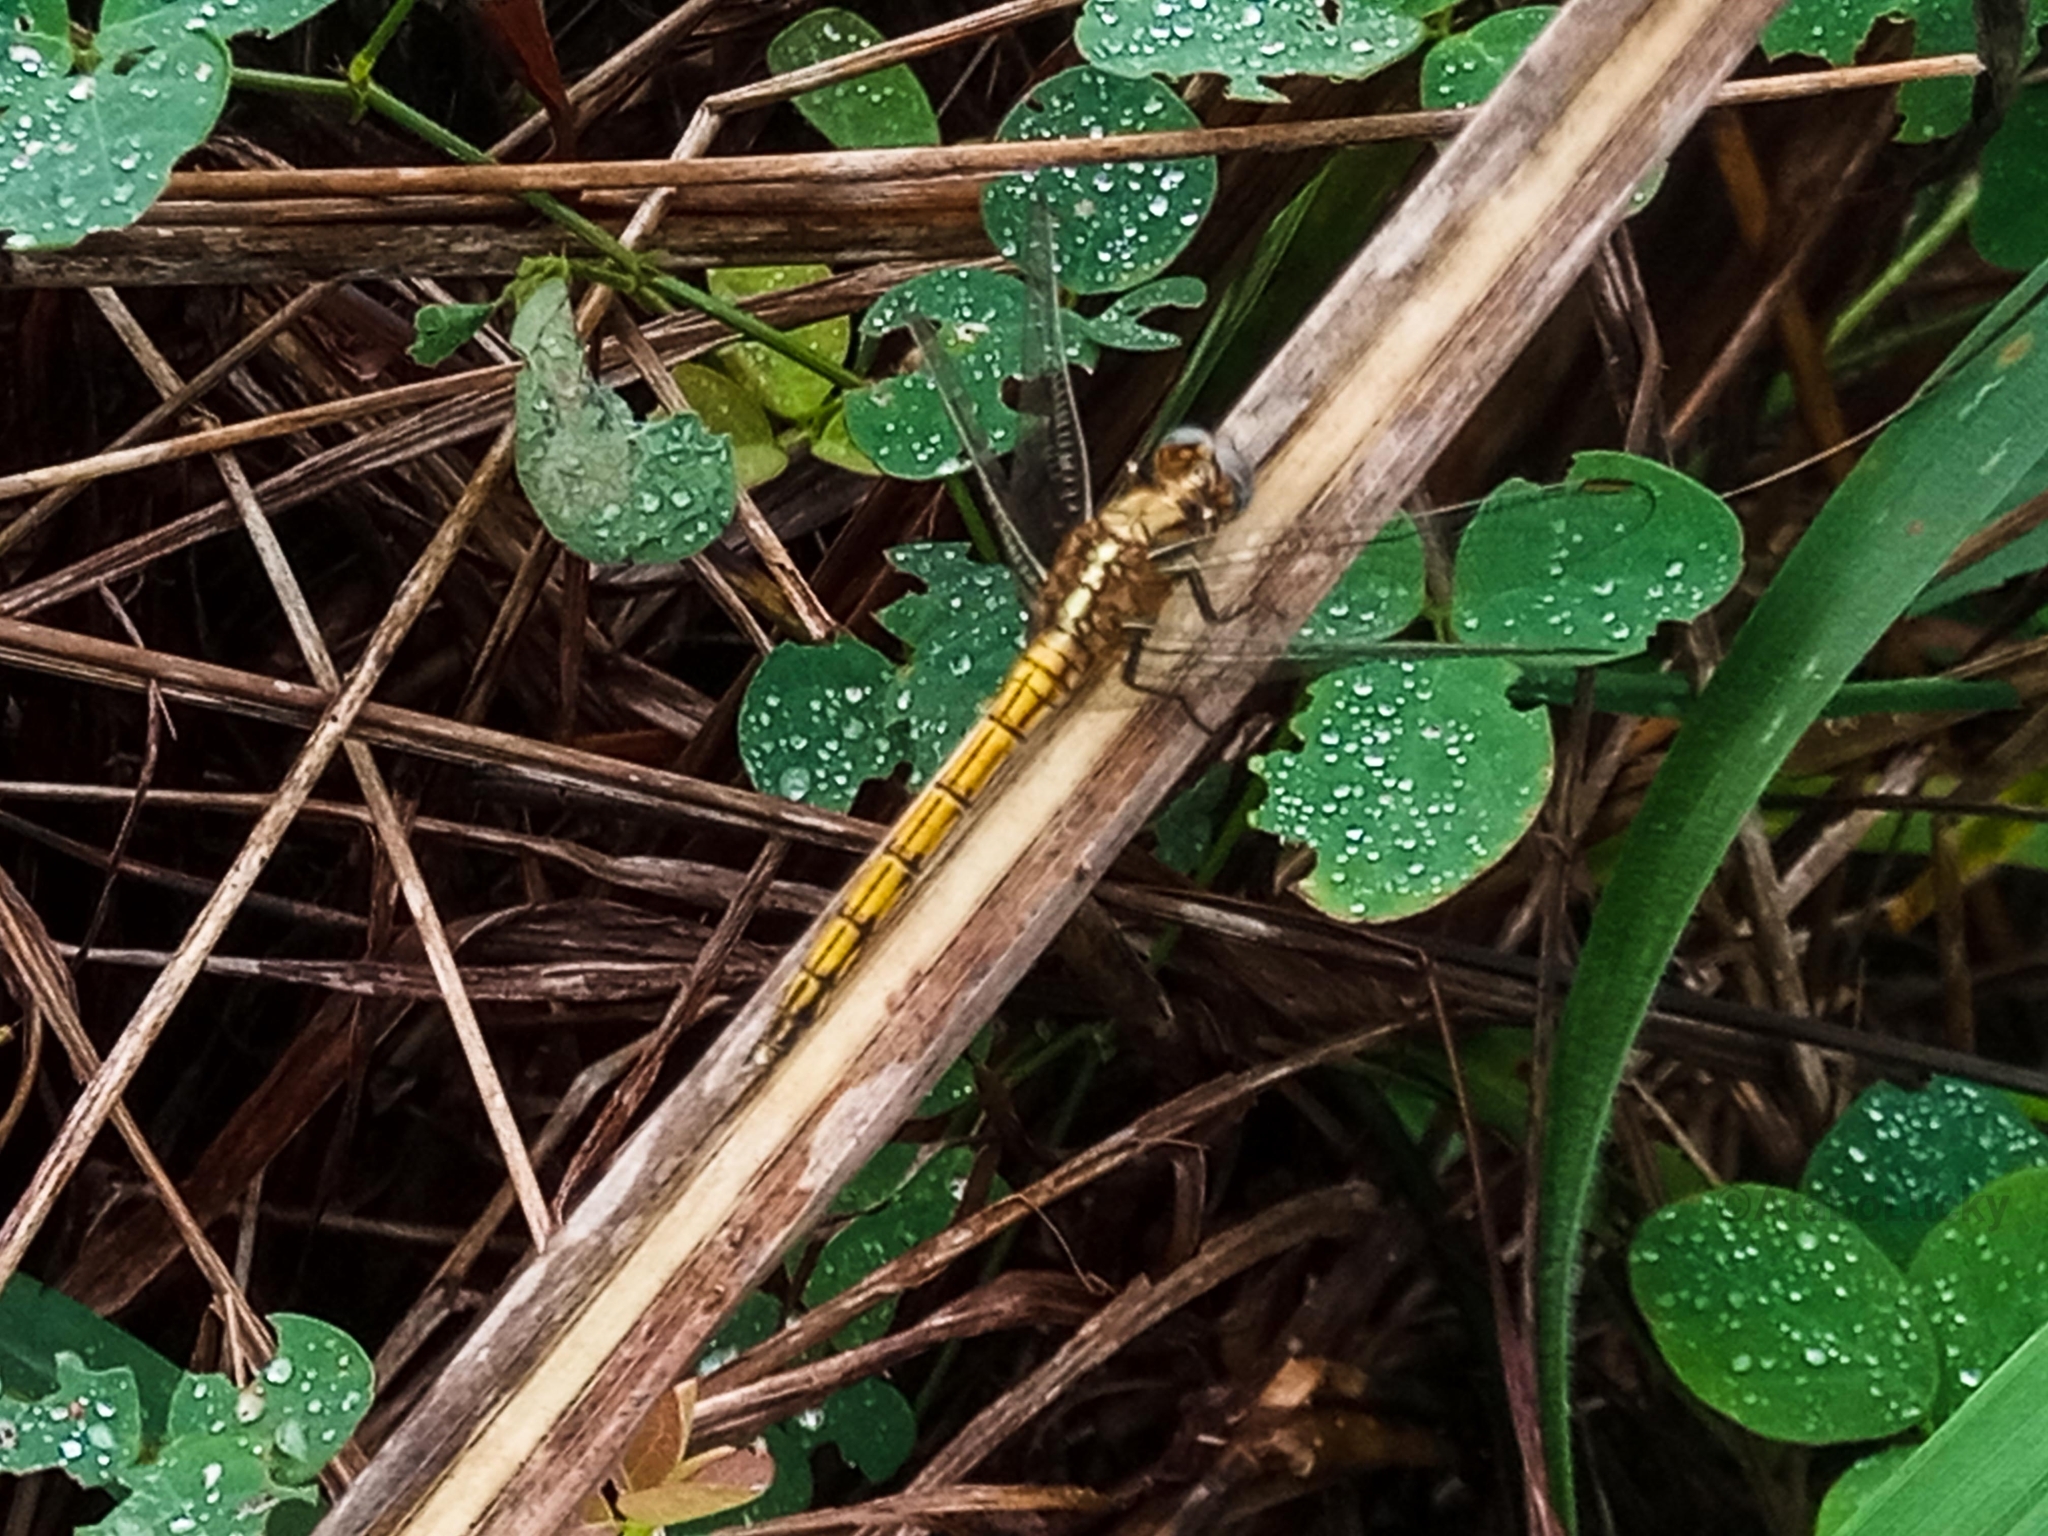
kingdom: Animalia
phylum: Arthropoda
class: Insecta
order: Odonata
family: Libellulidae
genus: Orthetrum
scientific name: Orthetrum chrysostigma
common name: Epaulet skimmer
